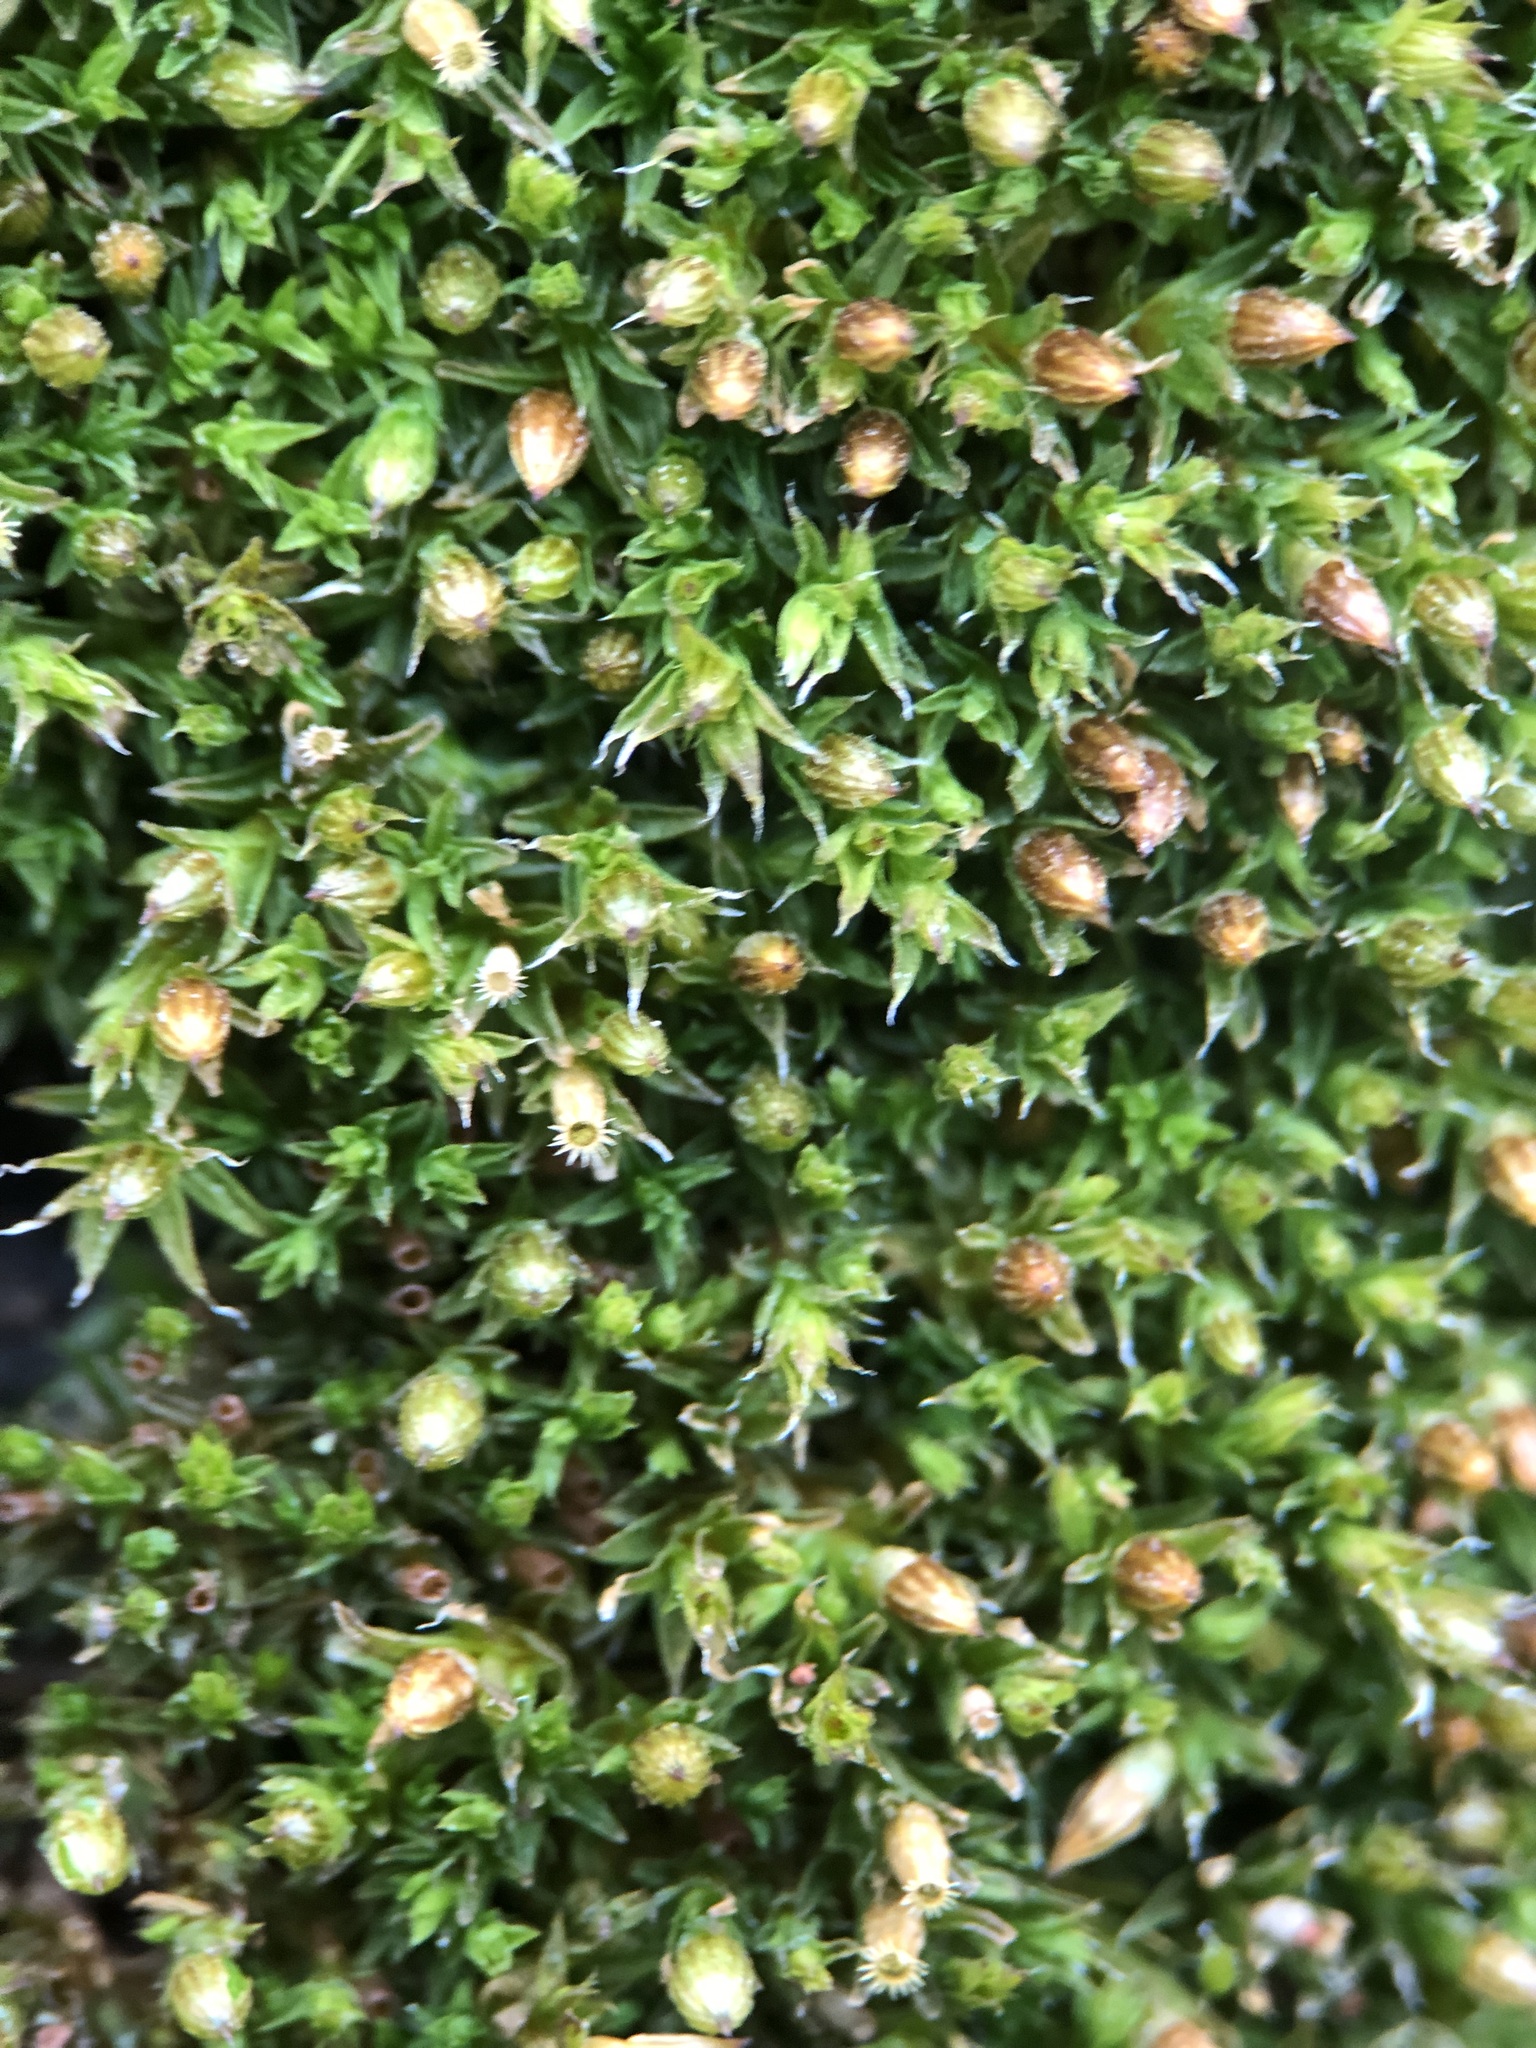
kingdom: Plantae
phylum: Bryophyta
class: Bryopsida
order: Orthotrichales
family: Orthotrichaceae
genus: Orthotrichum
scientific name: Orthotrichum diaphanum
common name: White-tipped bristle-moss
